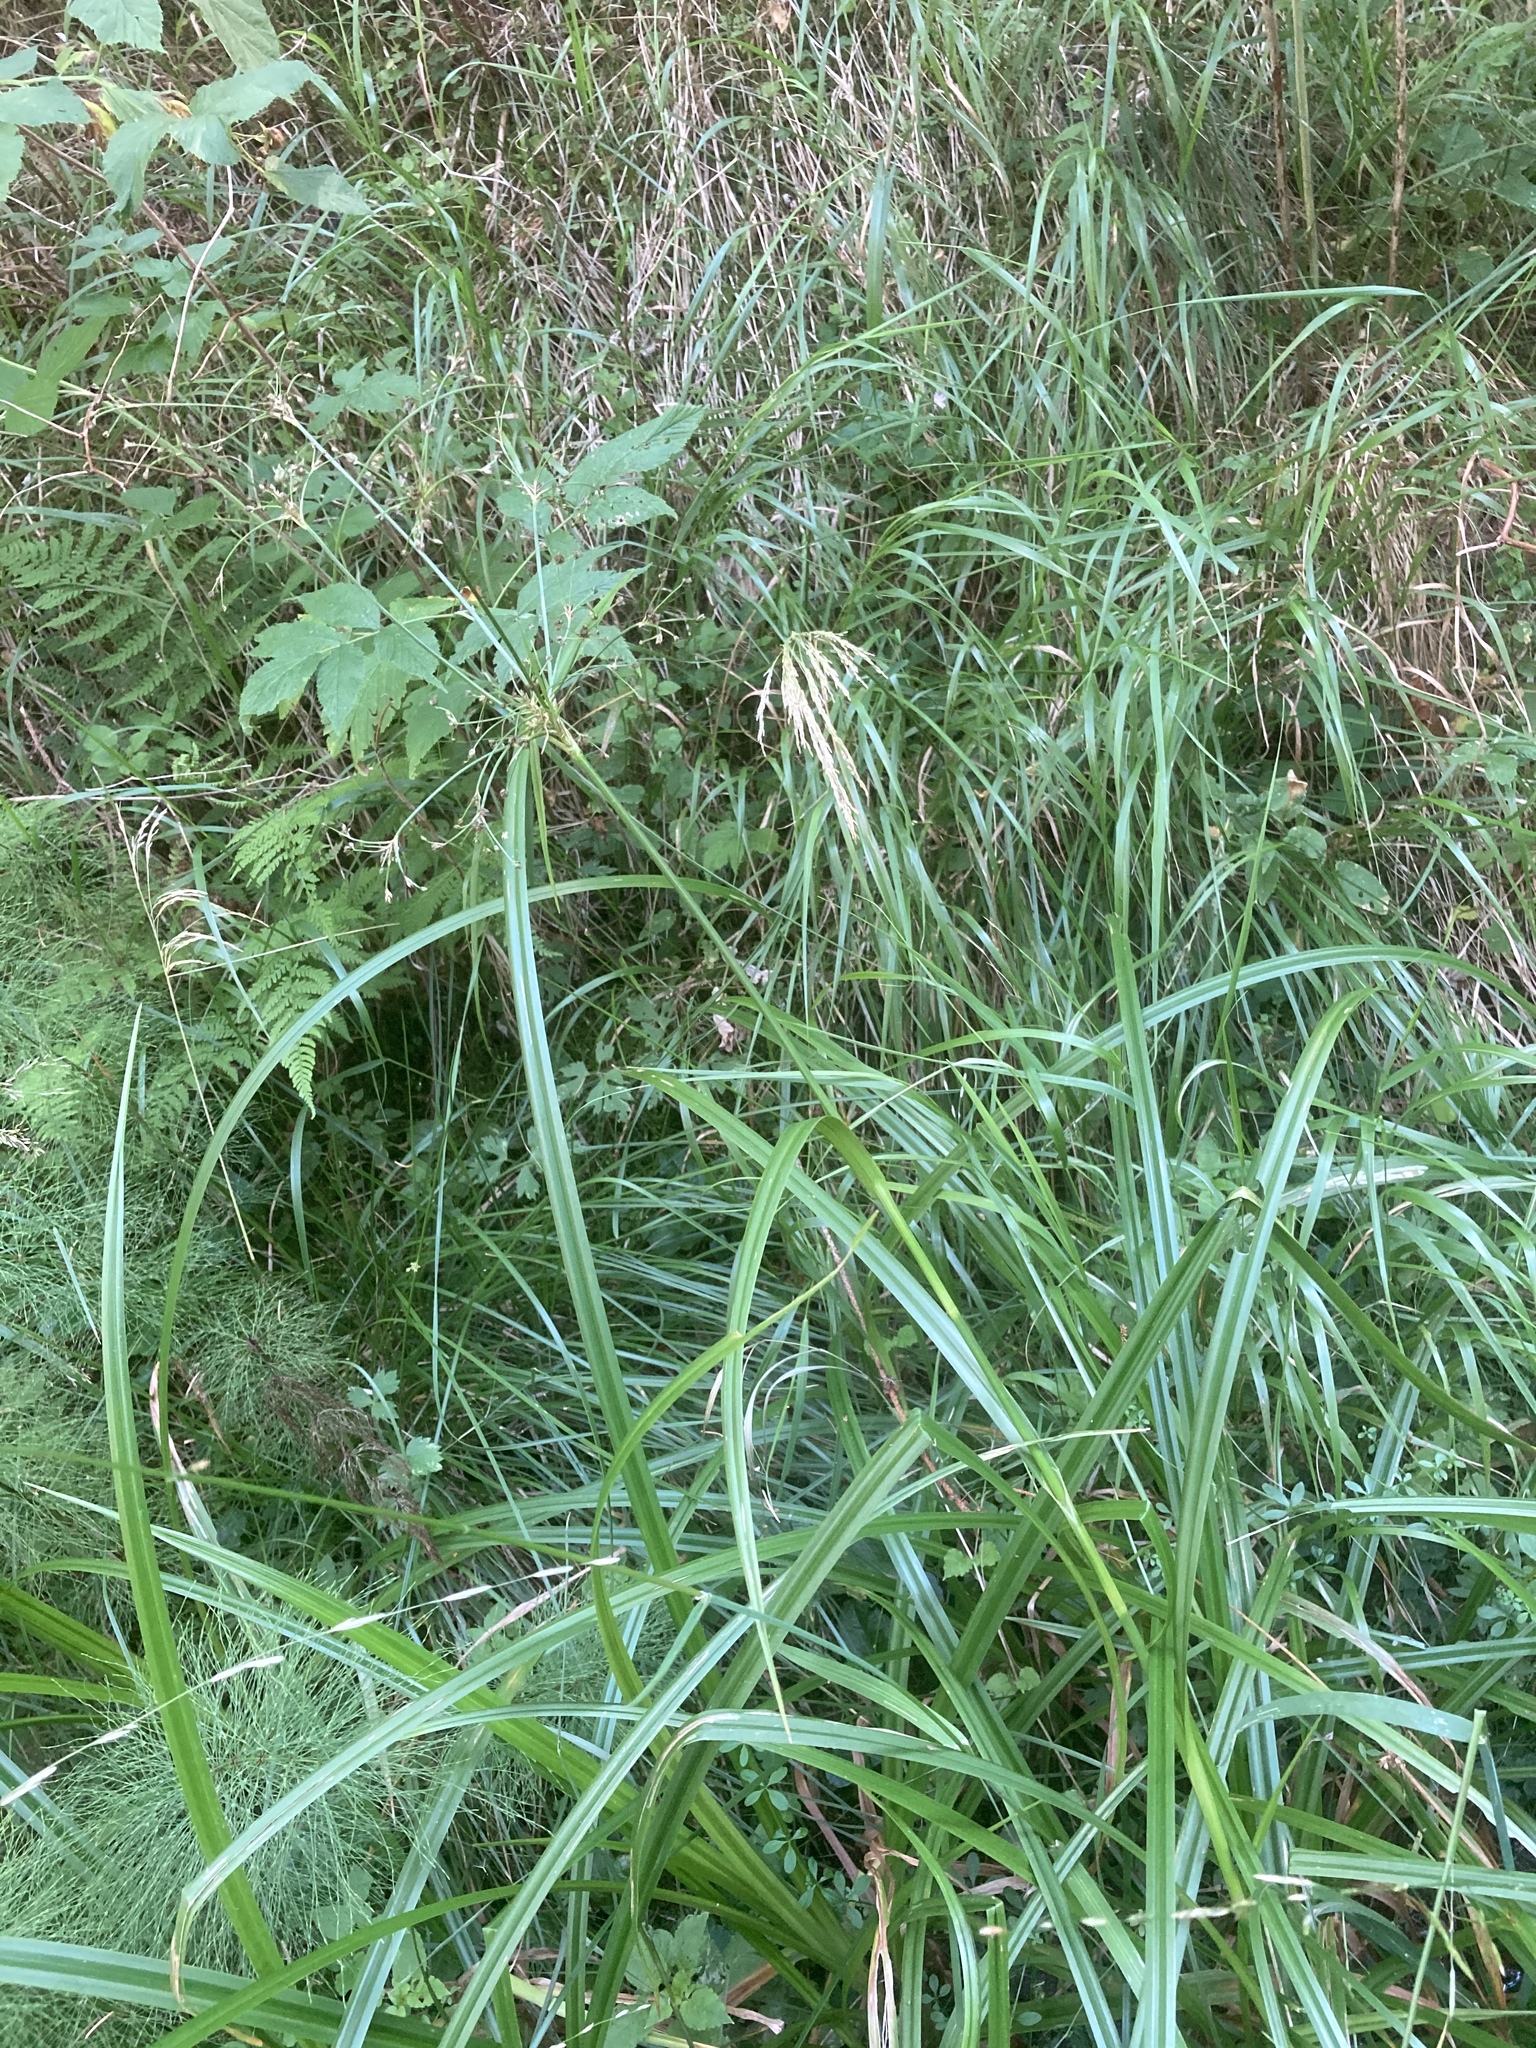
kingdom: Plantae
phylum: Tracheophyta
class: Liliopsida
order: Poales
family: Cyperaceae
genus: Scirpus
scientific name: Scirpus sylvaticus
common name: Wood club-rush
